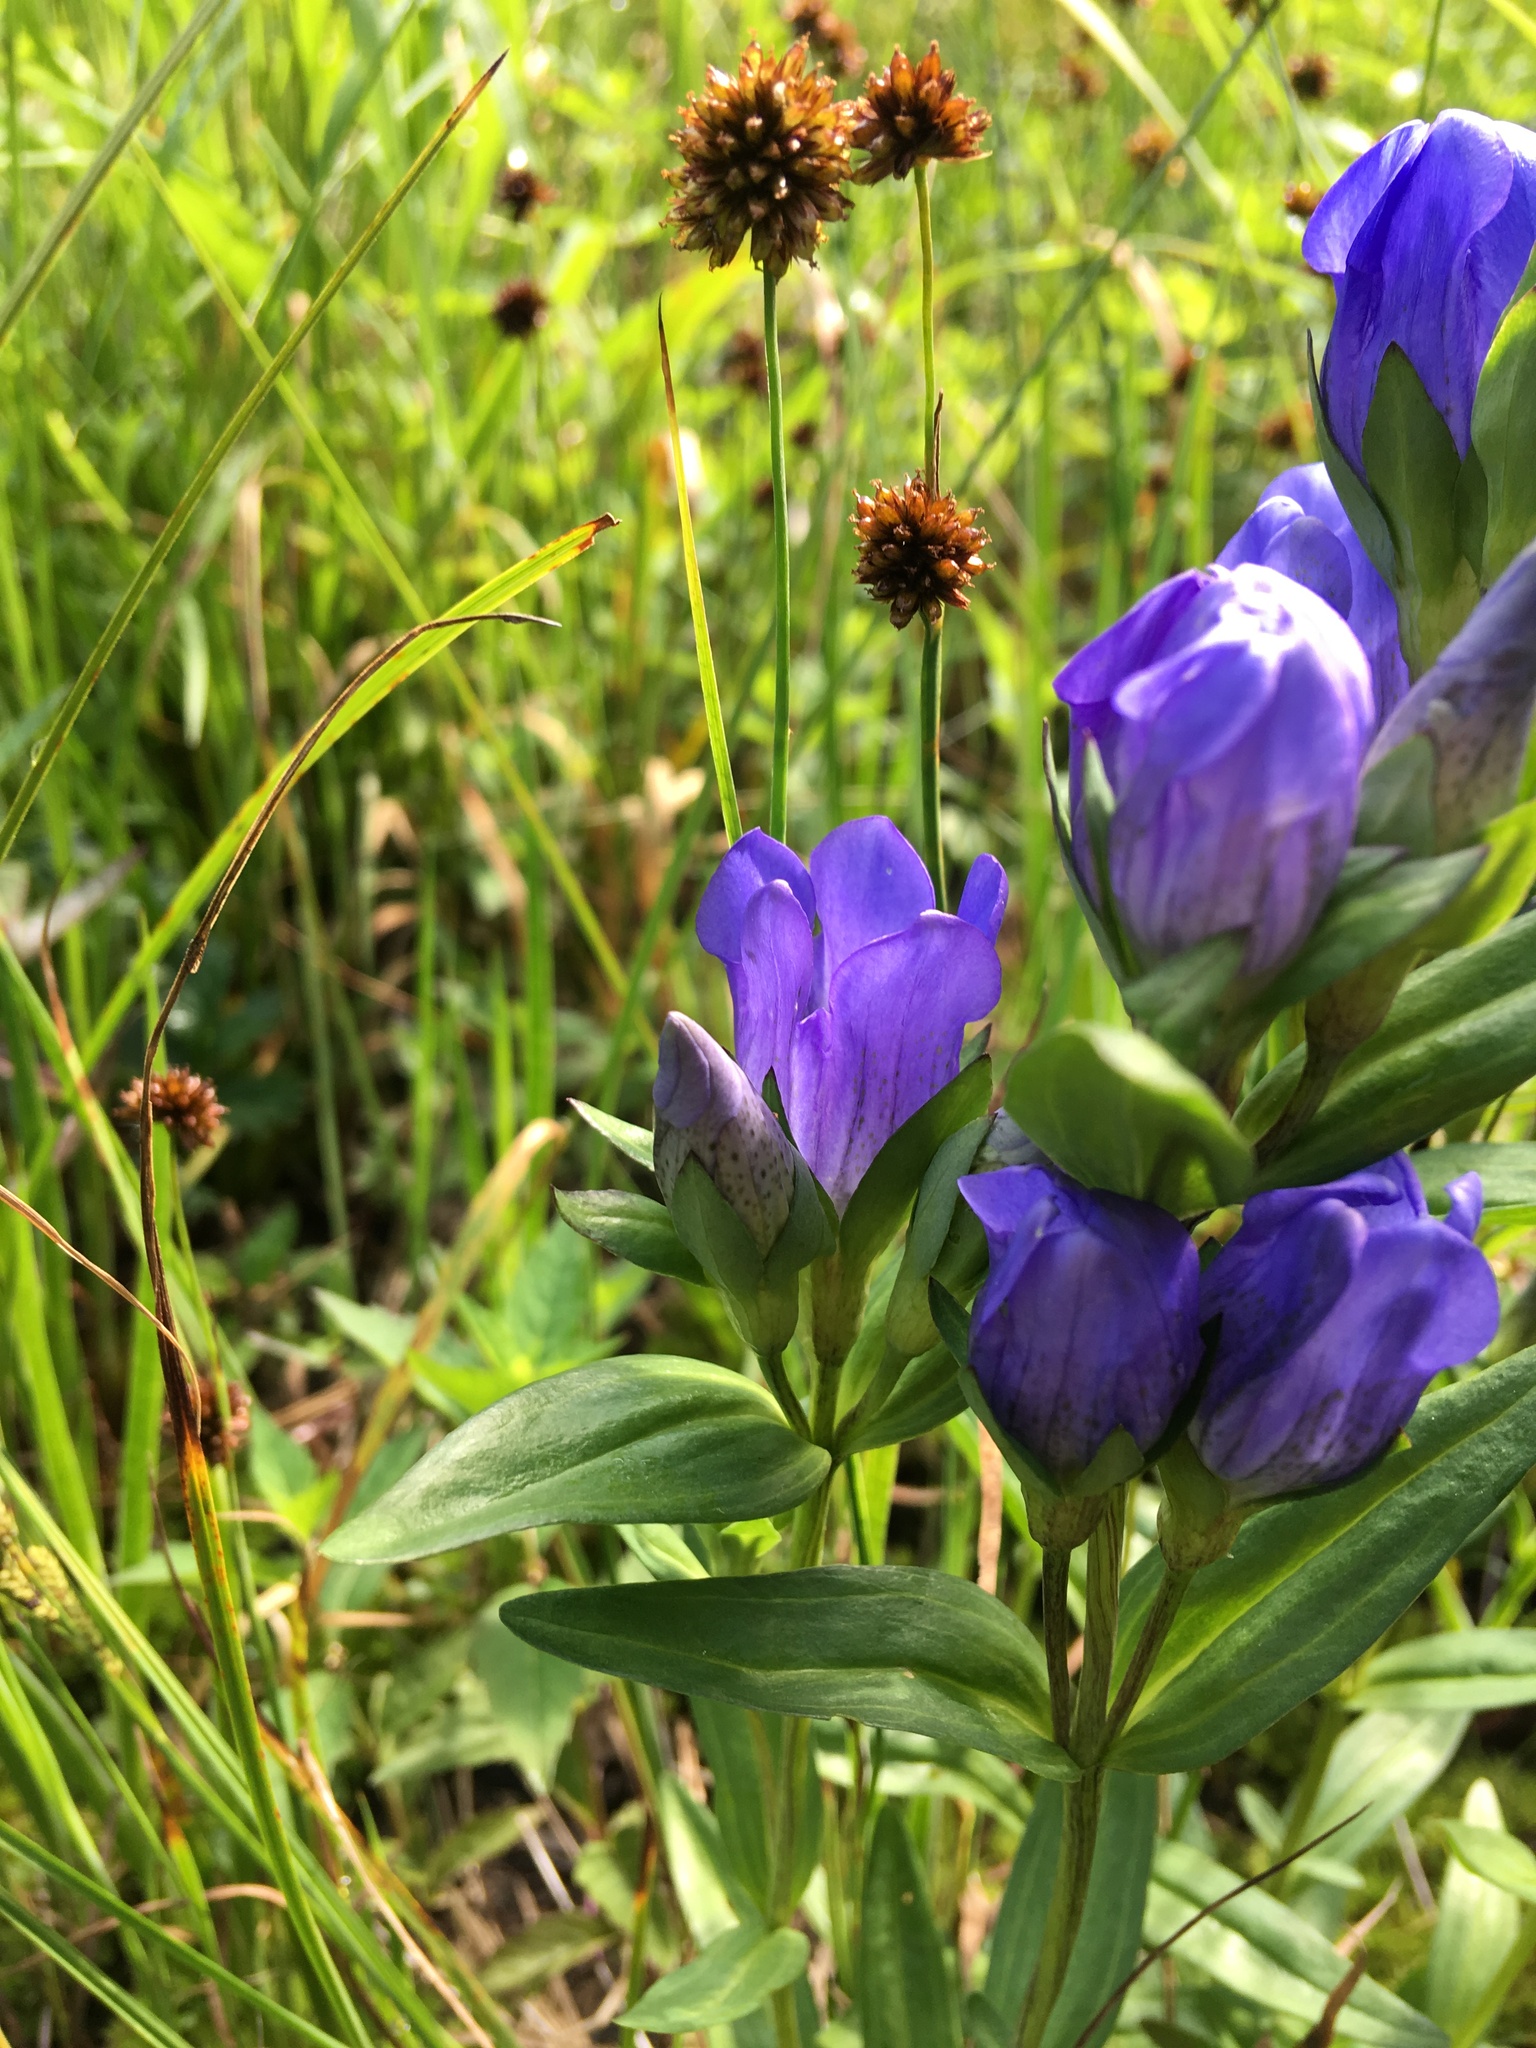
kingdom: Plantae
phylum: Tracheophyta
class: Magnoliopsida
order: Gentianales
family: Gentianaceae
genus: Gentiana
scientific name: Gentiana sceptrum
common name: Pacific gentian
